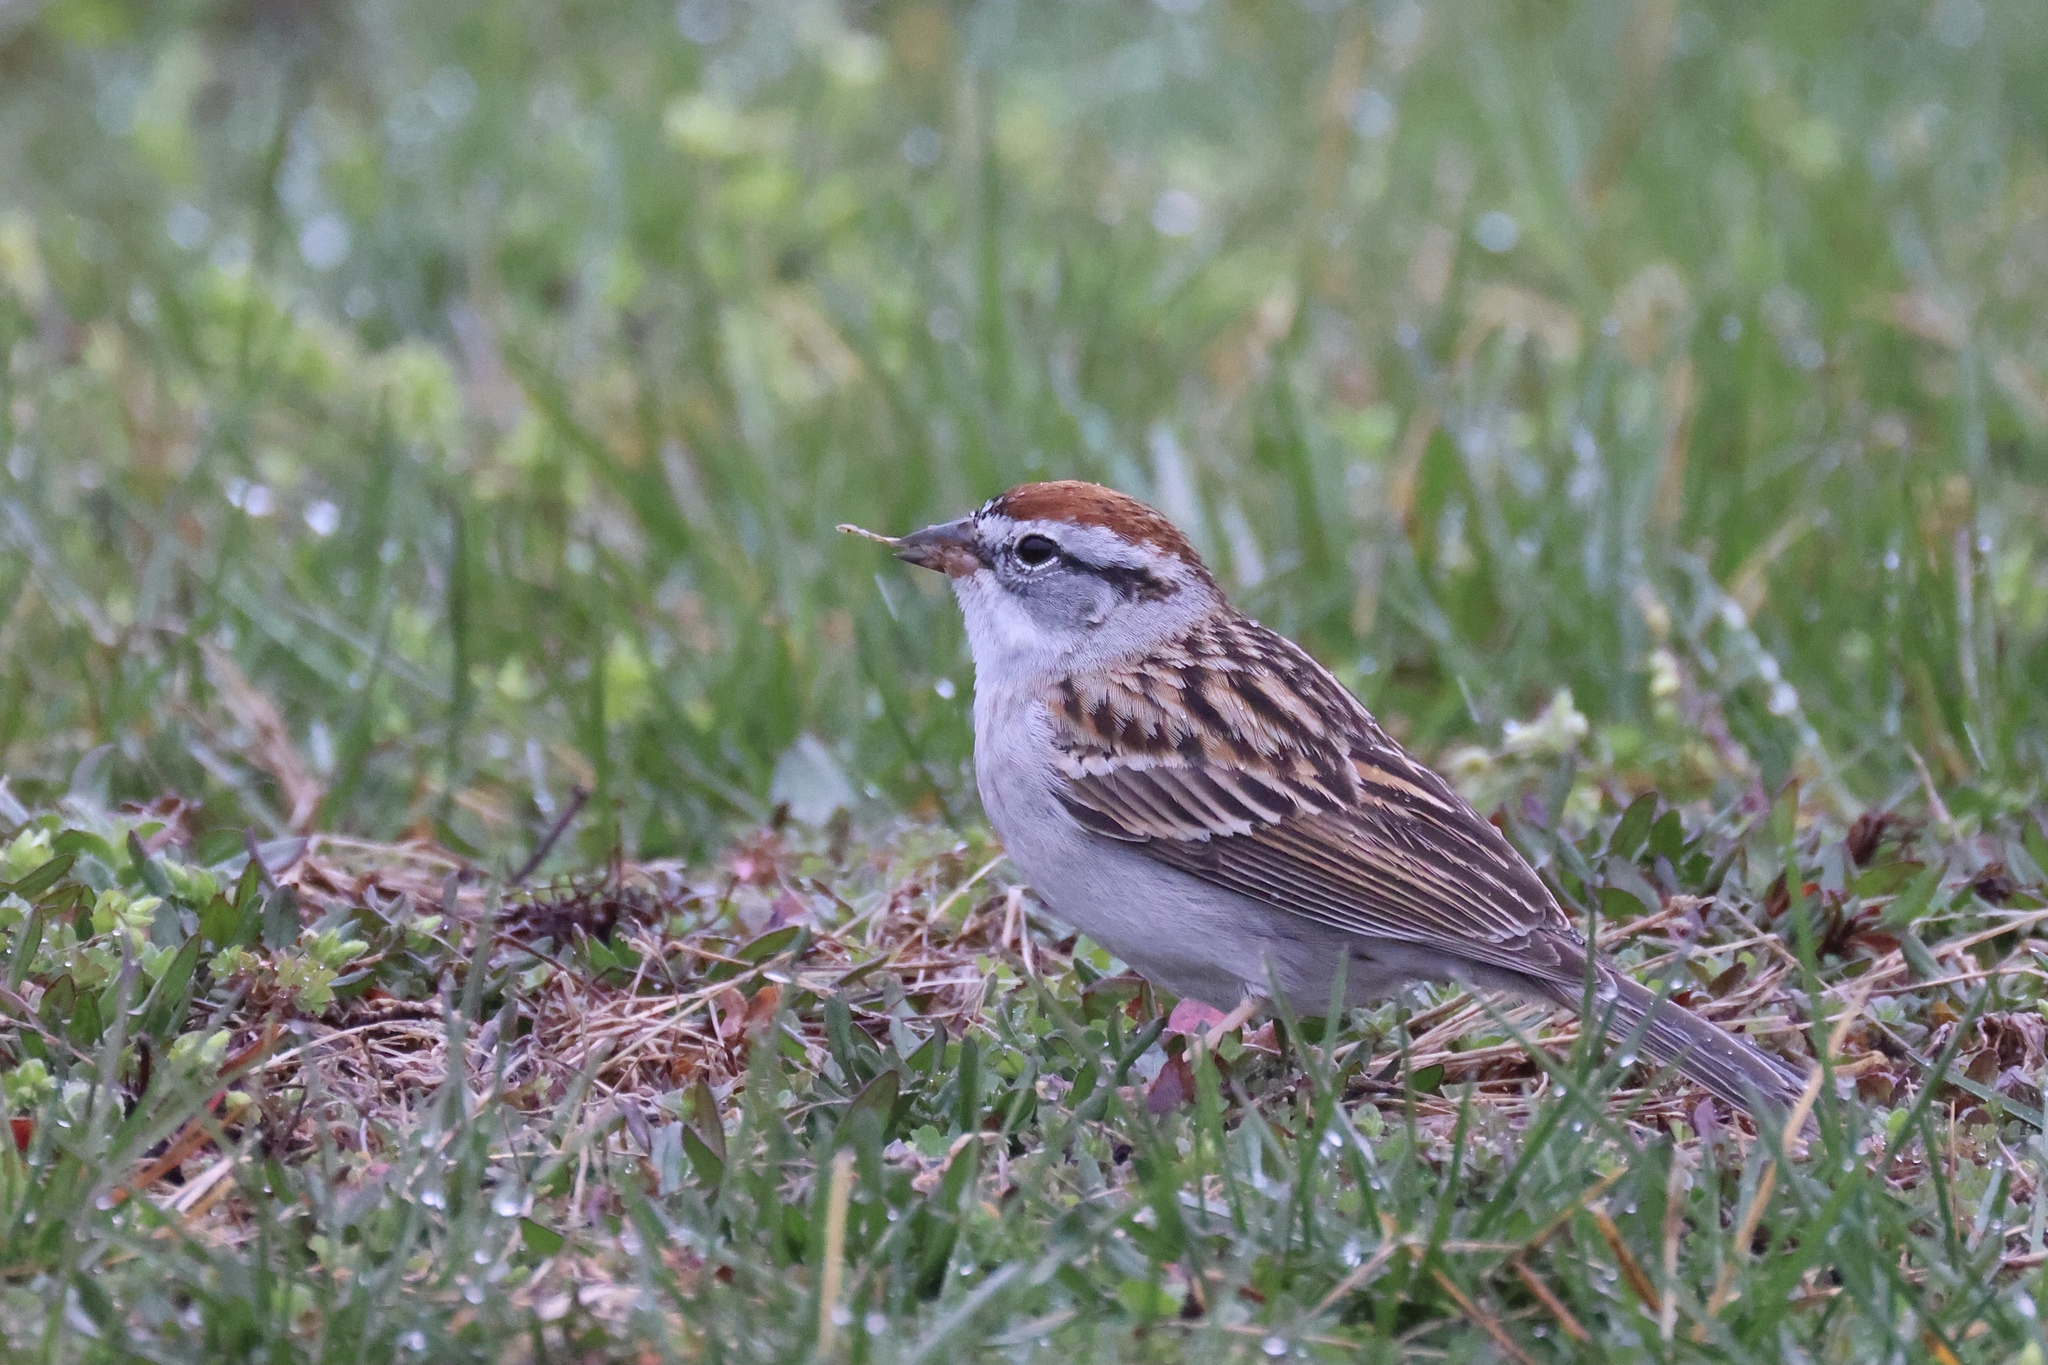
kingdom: Animalia
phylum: Chordata
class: Aves
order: Passeriformes
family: Passerellidae
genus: Spizella
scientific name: Spizella passerina
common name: Chipping sparrow
